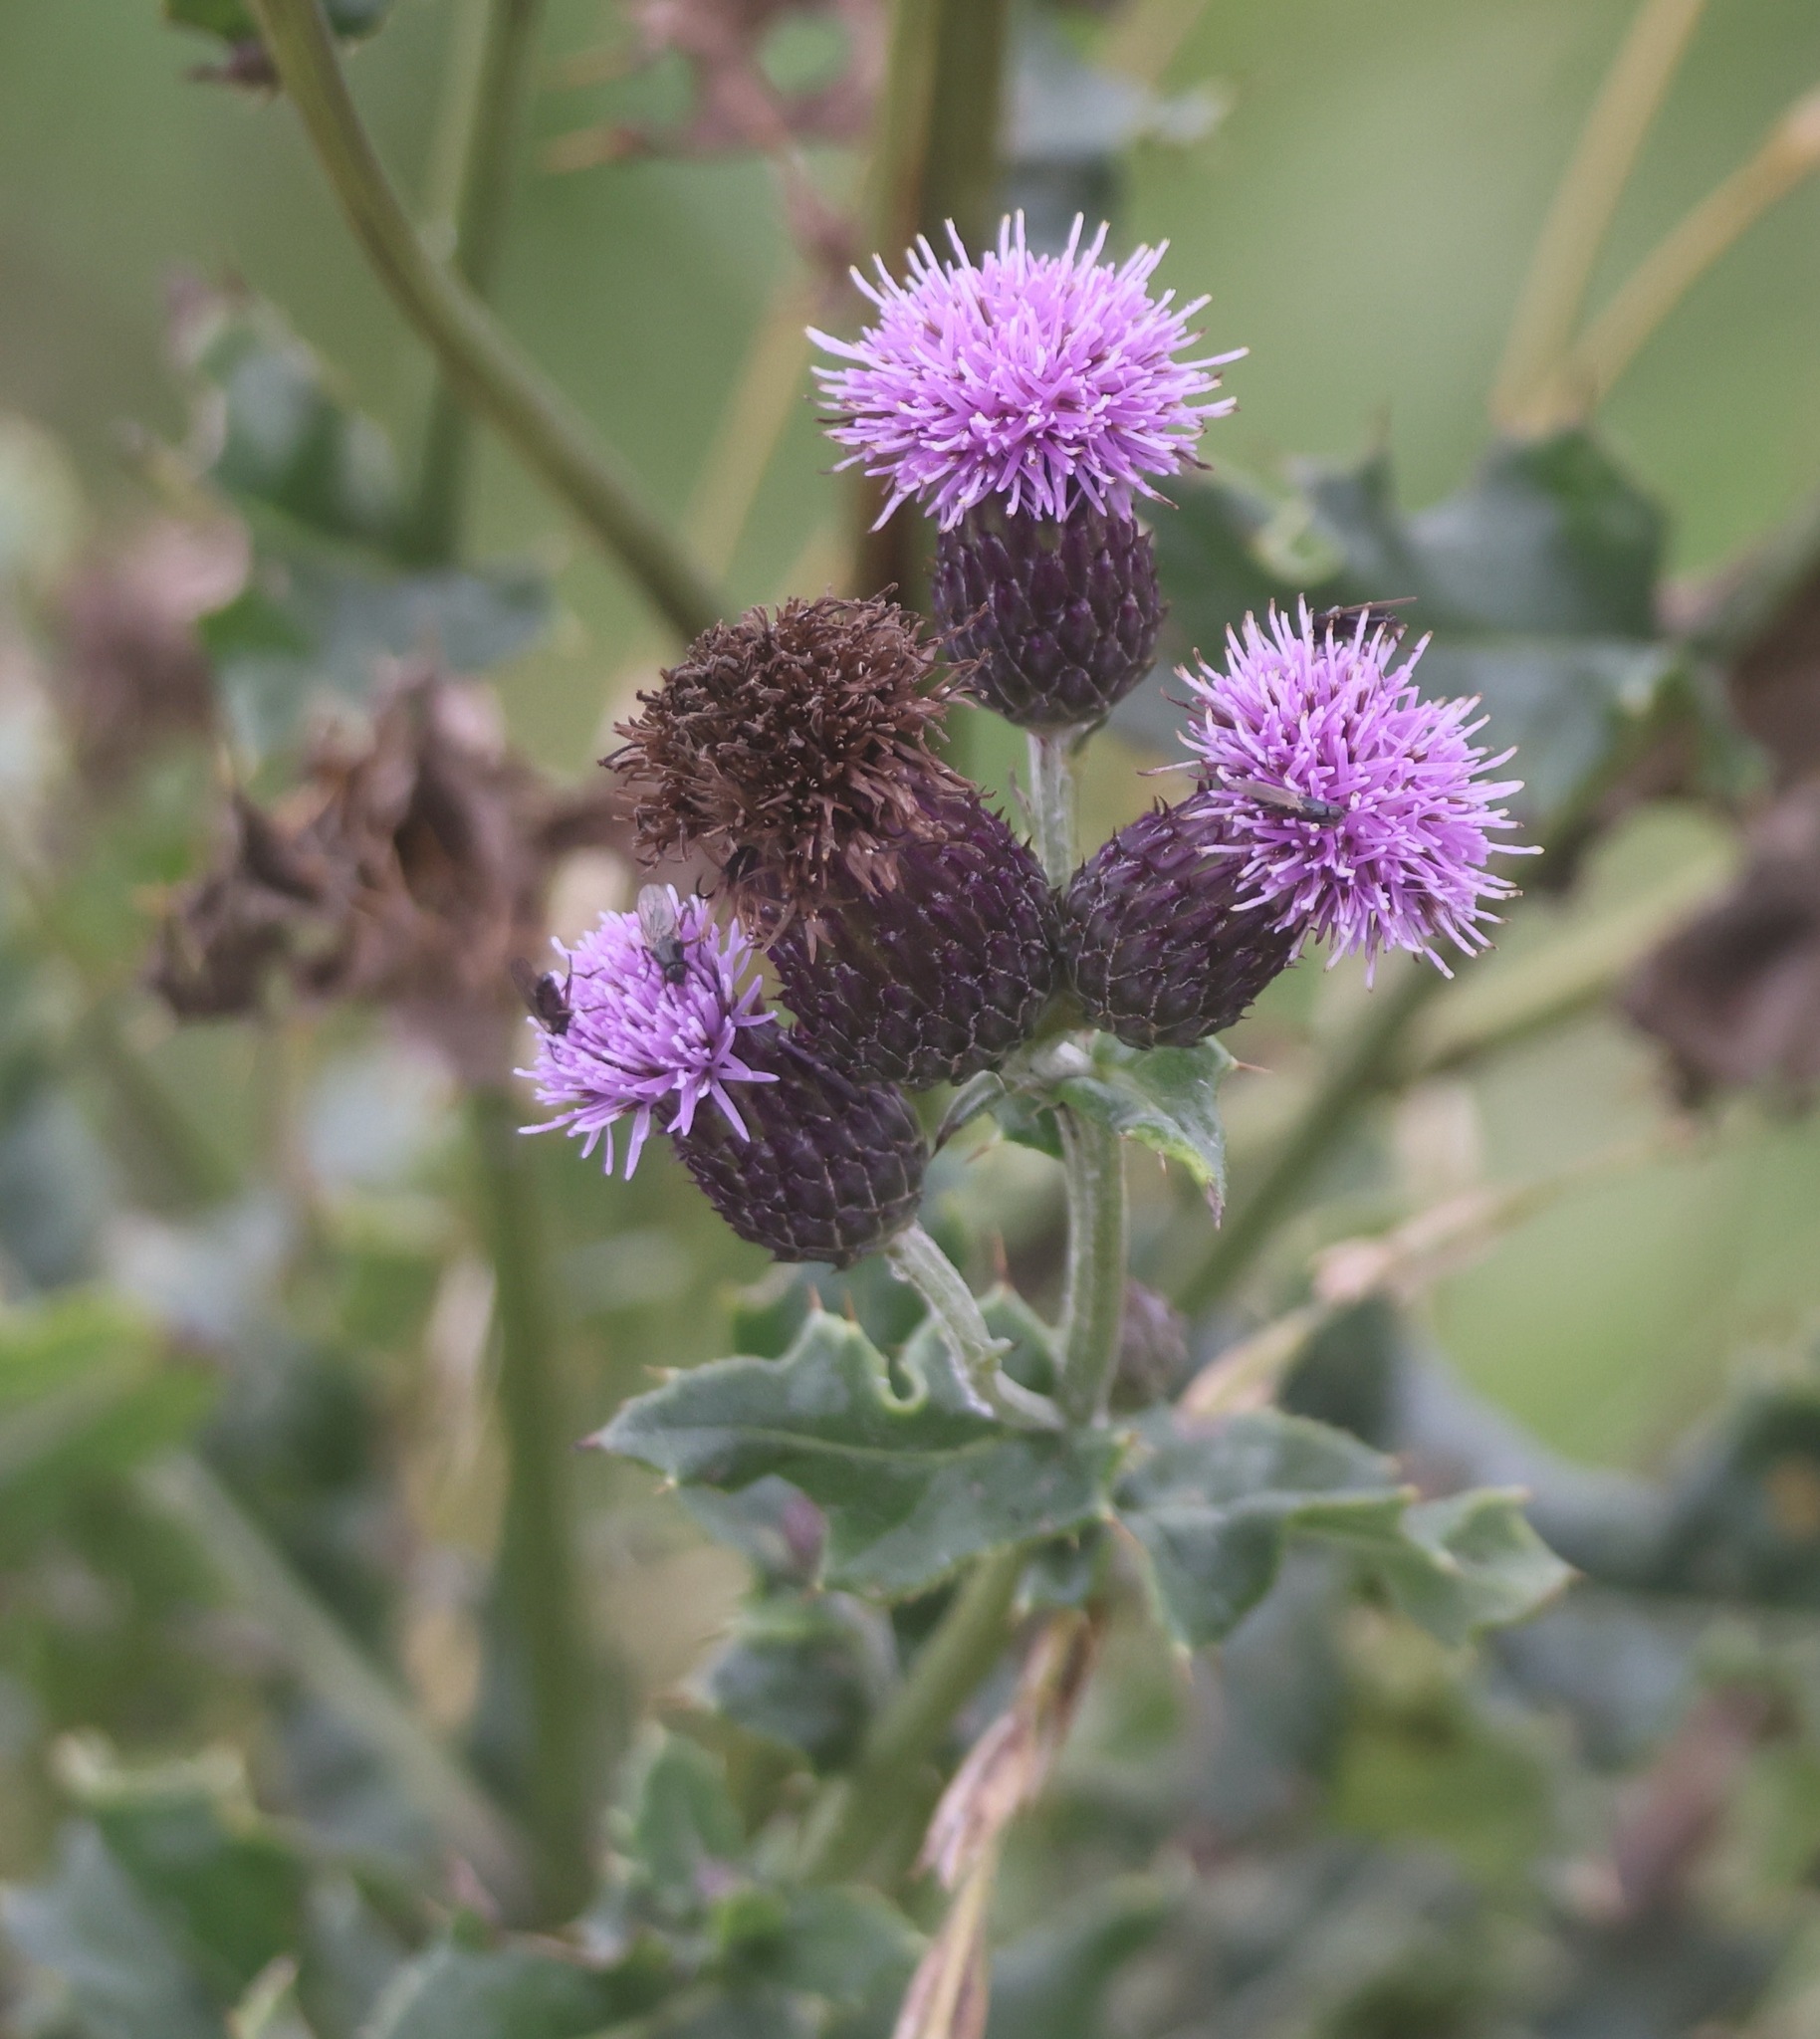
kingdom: Plantae
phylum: Tracheophyta
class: Magnoliopsida
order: Asterales
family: Asteraceae
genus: Cirsium
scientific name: Cirsium arvense
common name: Creeping thistle
